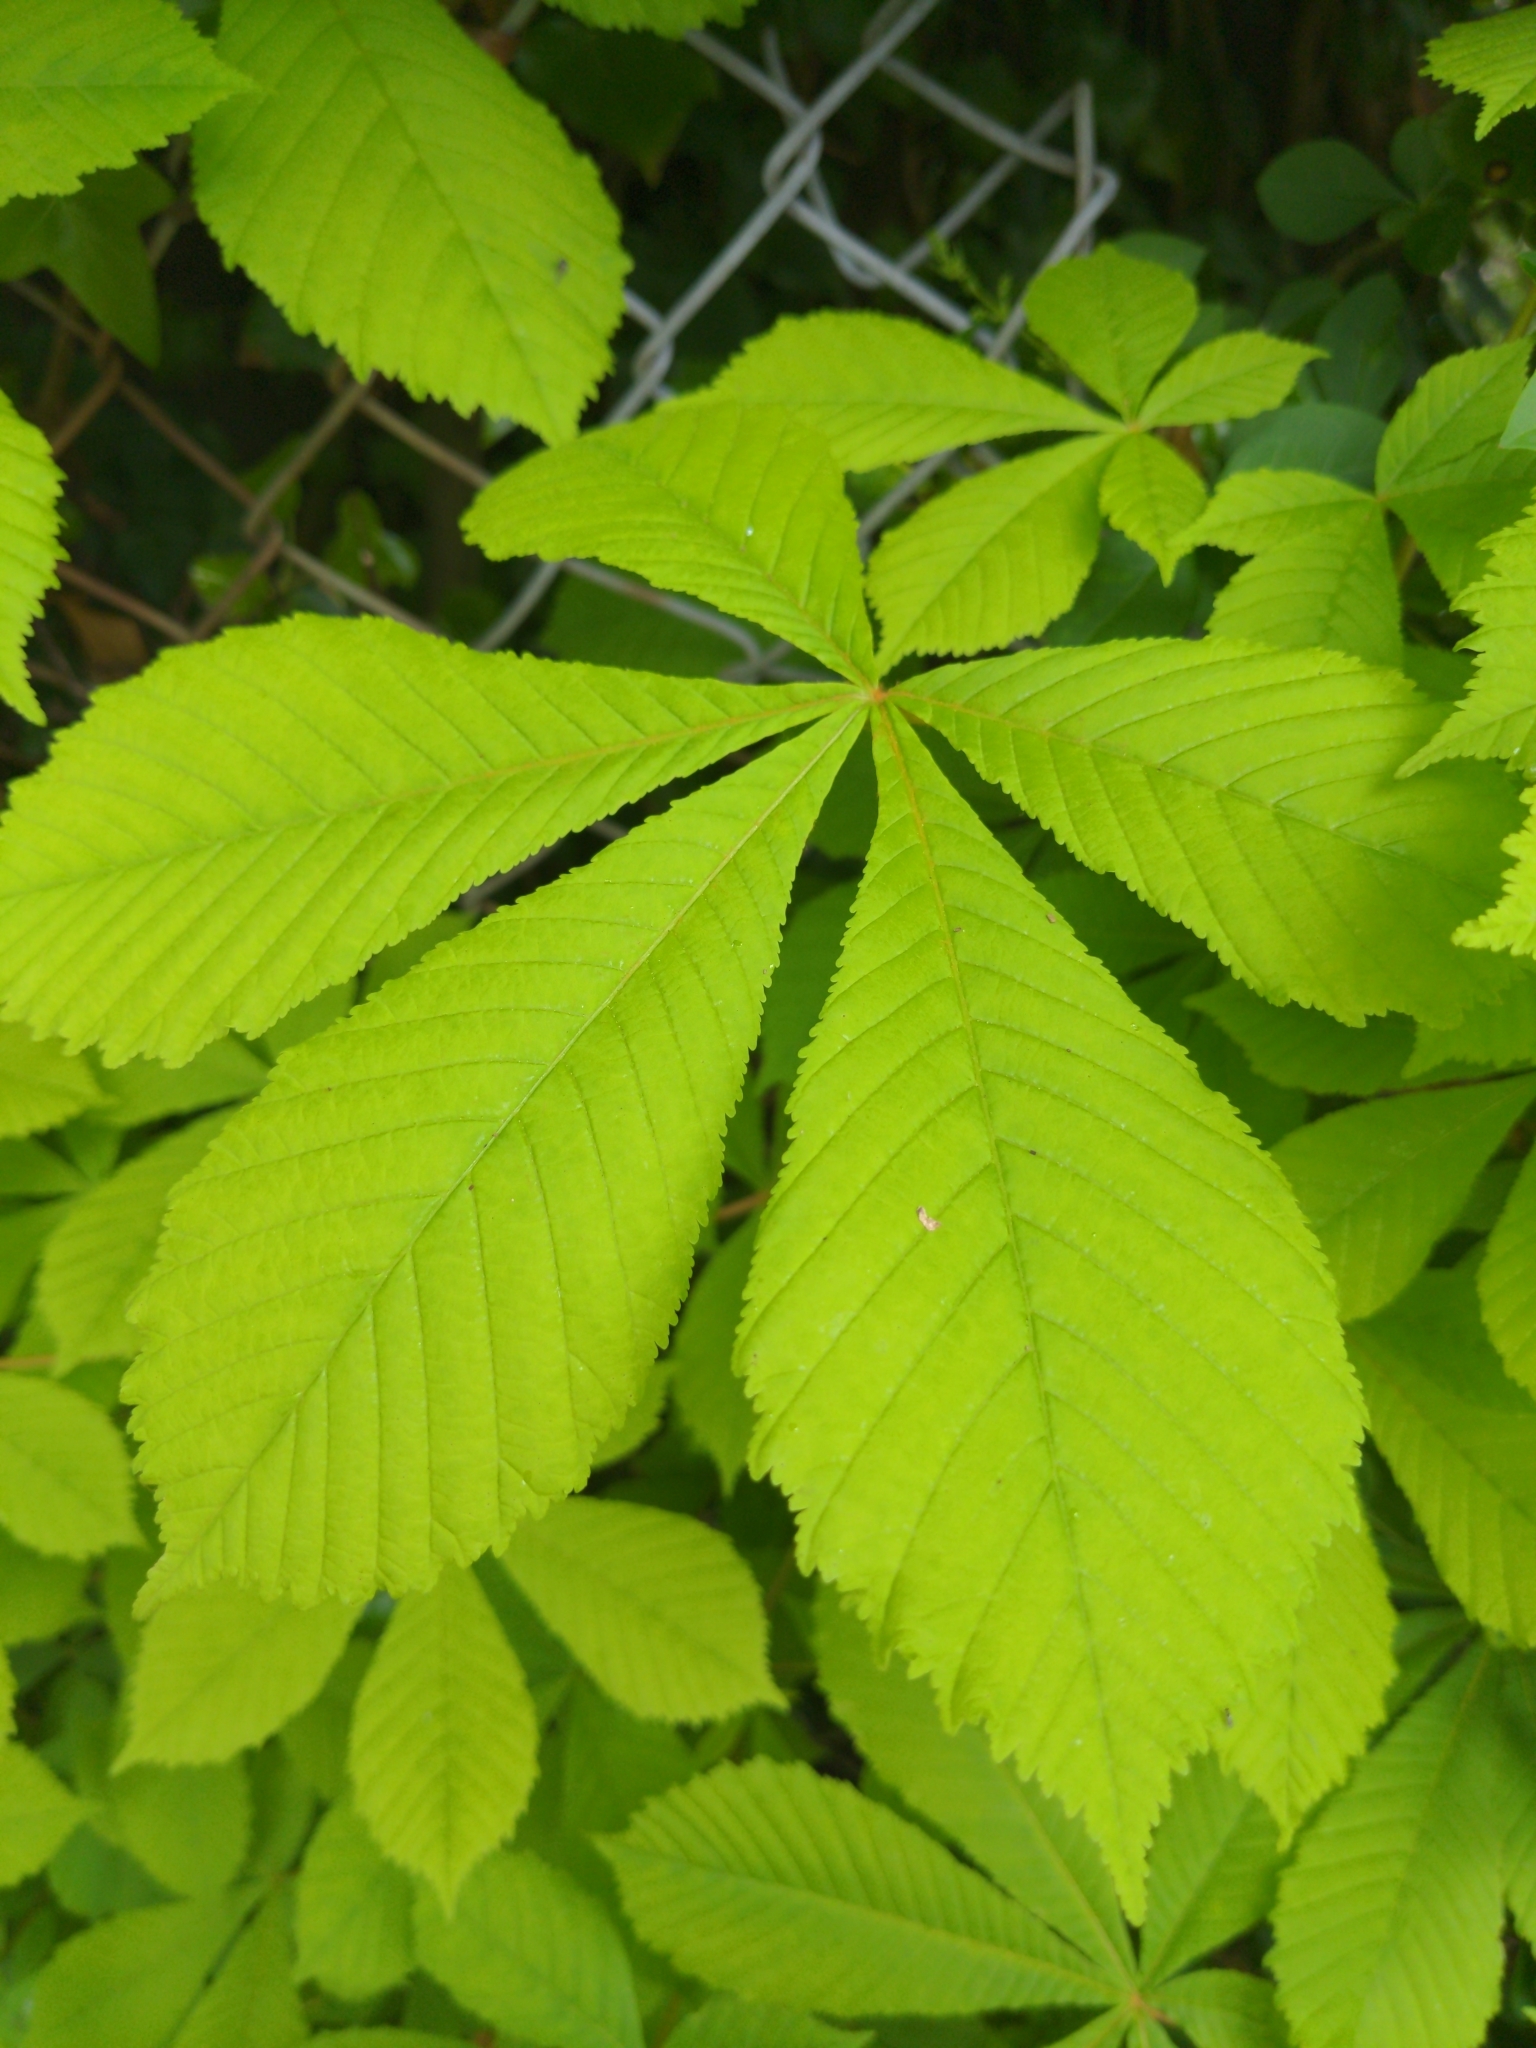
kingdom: Plantae
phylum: Tracheophyta
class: Magnoliopsida
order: Sapindales
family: Sapindaceae
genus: Aesculus
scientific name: Aesculus hippocastanum
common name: Horse-chestnut
